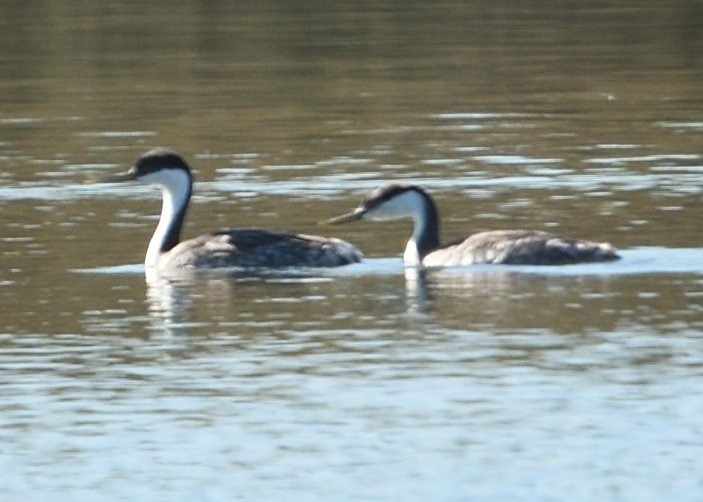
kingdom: Animalia
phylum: Chordata
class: Aves
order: Podicipediformes
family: Podicipedidae
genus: Aechmophorus
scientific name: Aechmophorus occidentalis
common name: Western grebe
